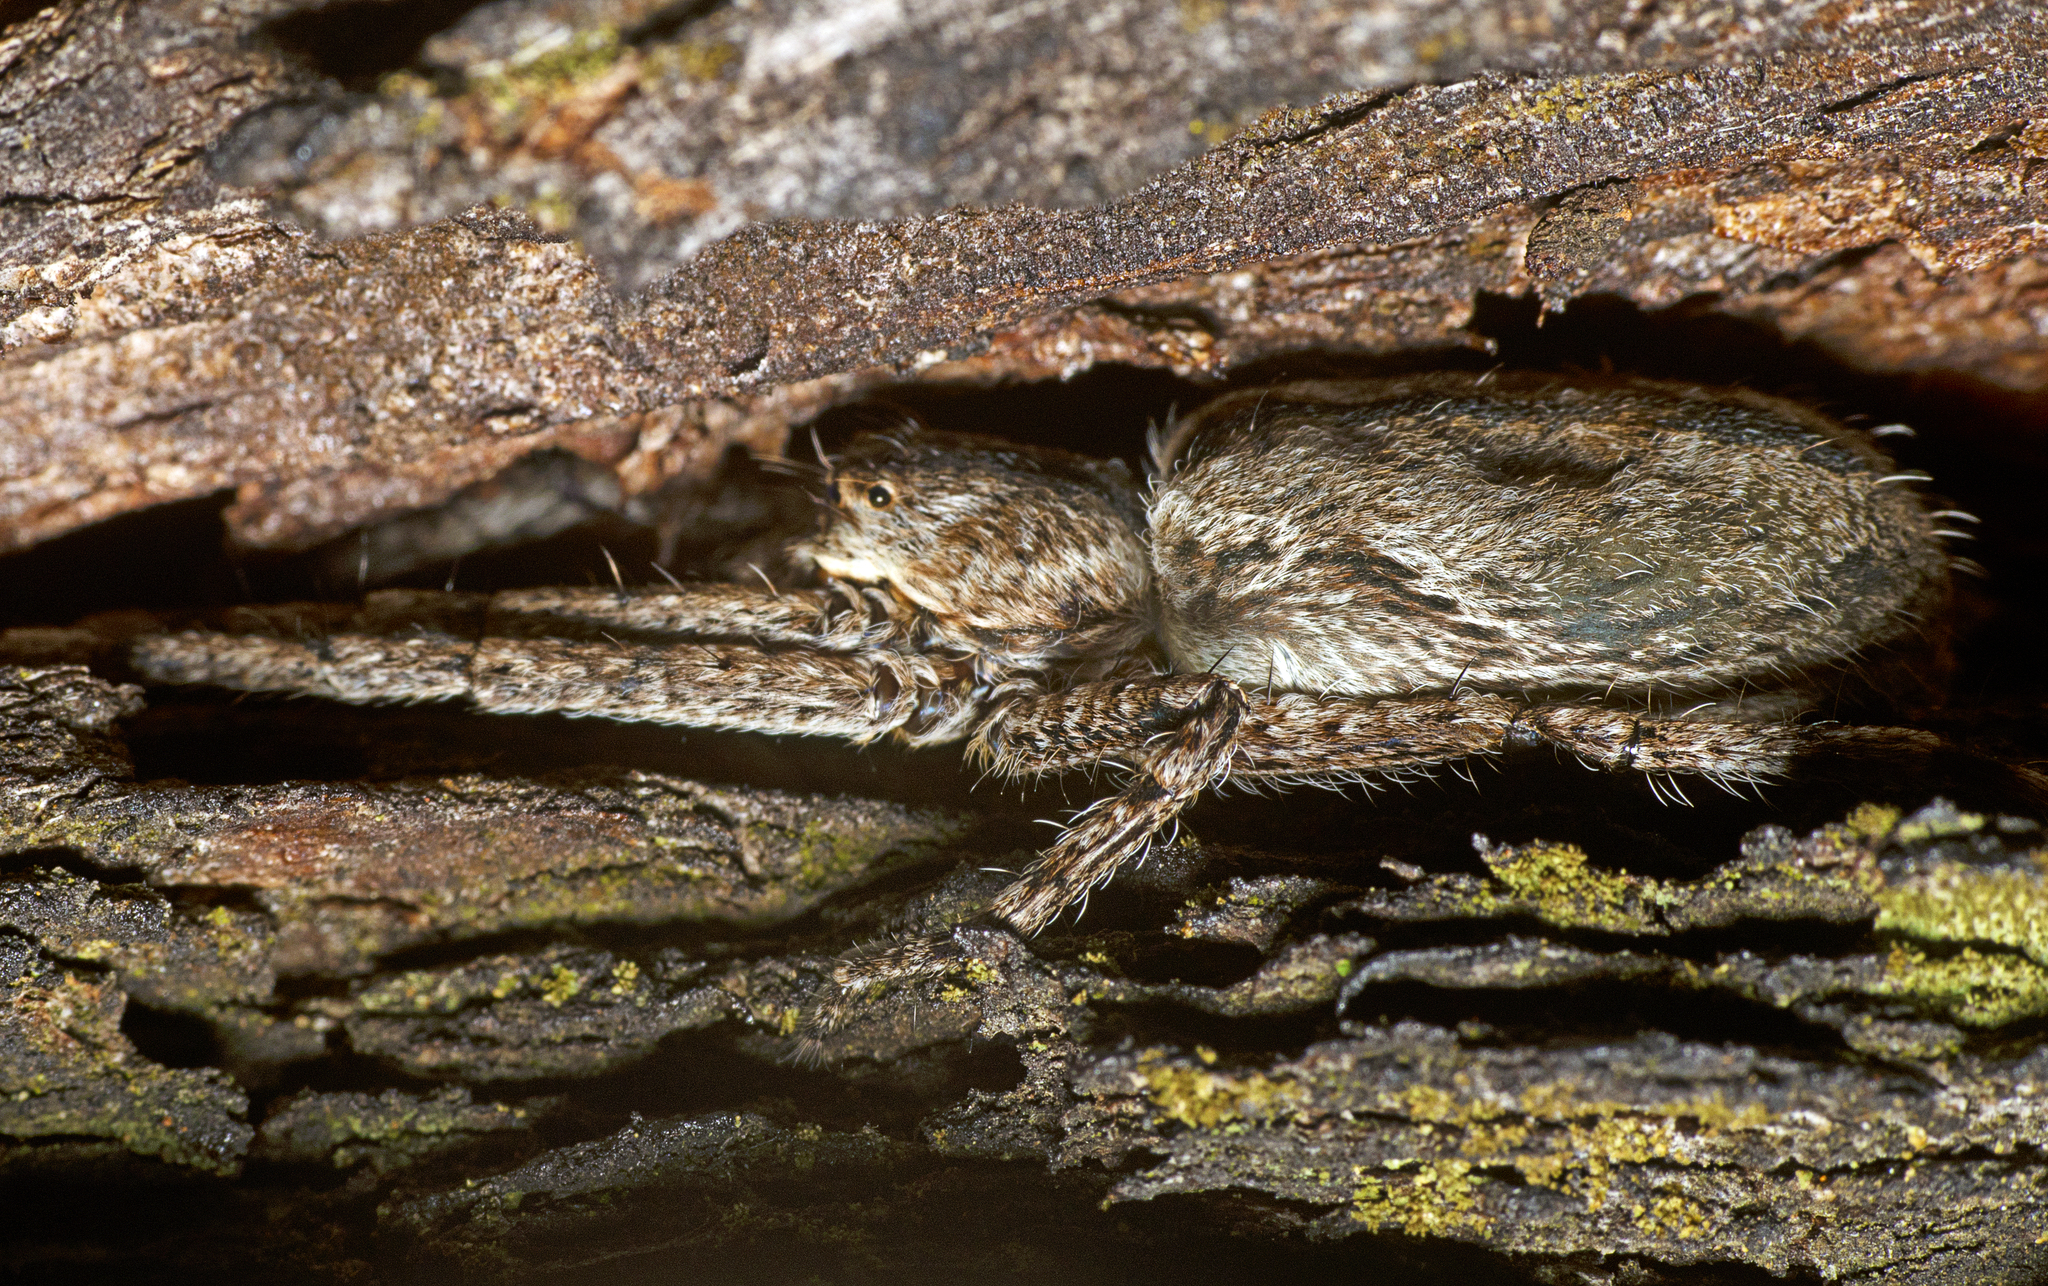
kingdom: Animalia
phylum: Arthropoda
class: Arachnida
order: Araneae
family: Sparassidae
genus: Pediana
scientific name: Pediana regina
